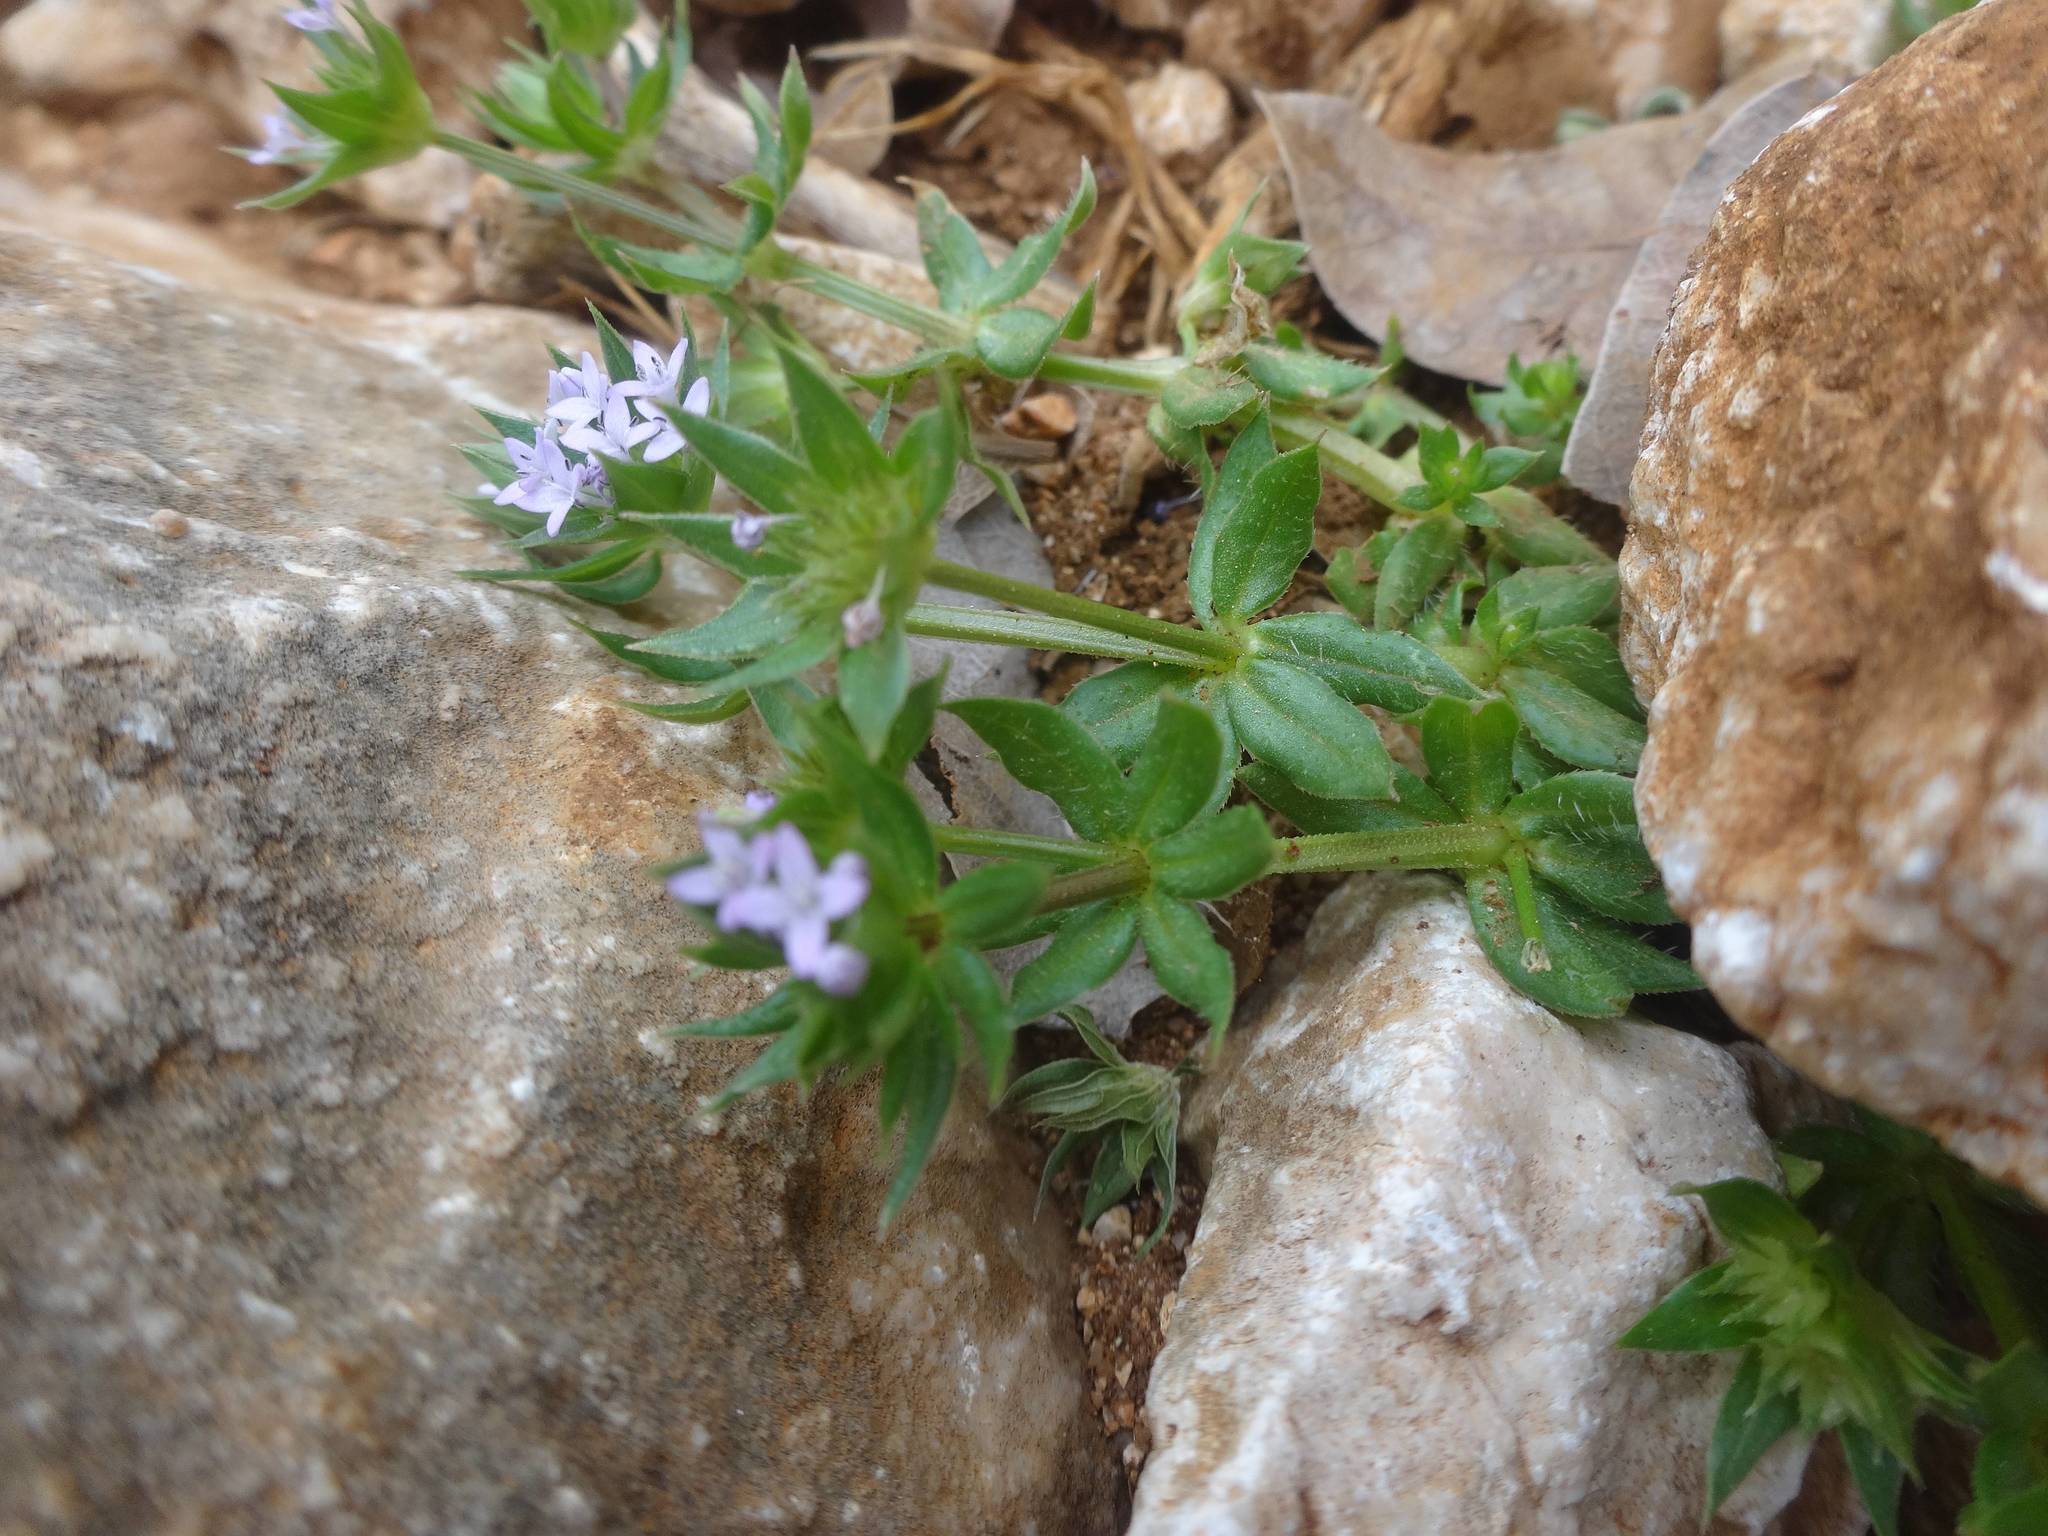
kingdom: Plantae
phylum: Tracheophyta
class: Magnoliopsida
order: Gentianales
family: Rubiaceae
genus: Sherardia
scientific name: Sherardia arvensis
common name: Field madder
